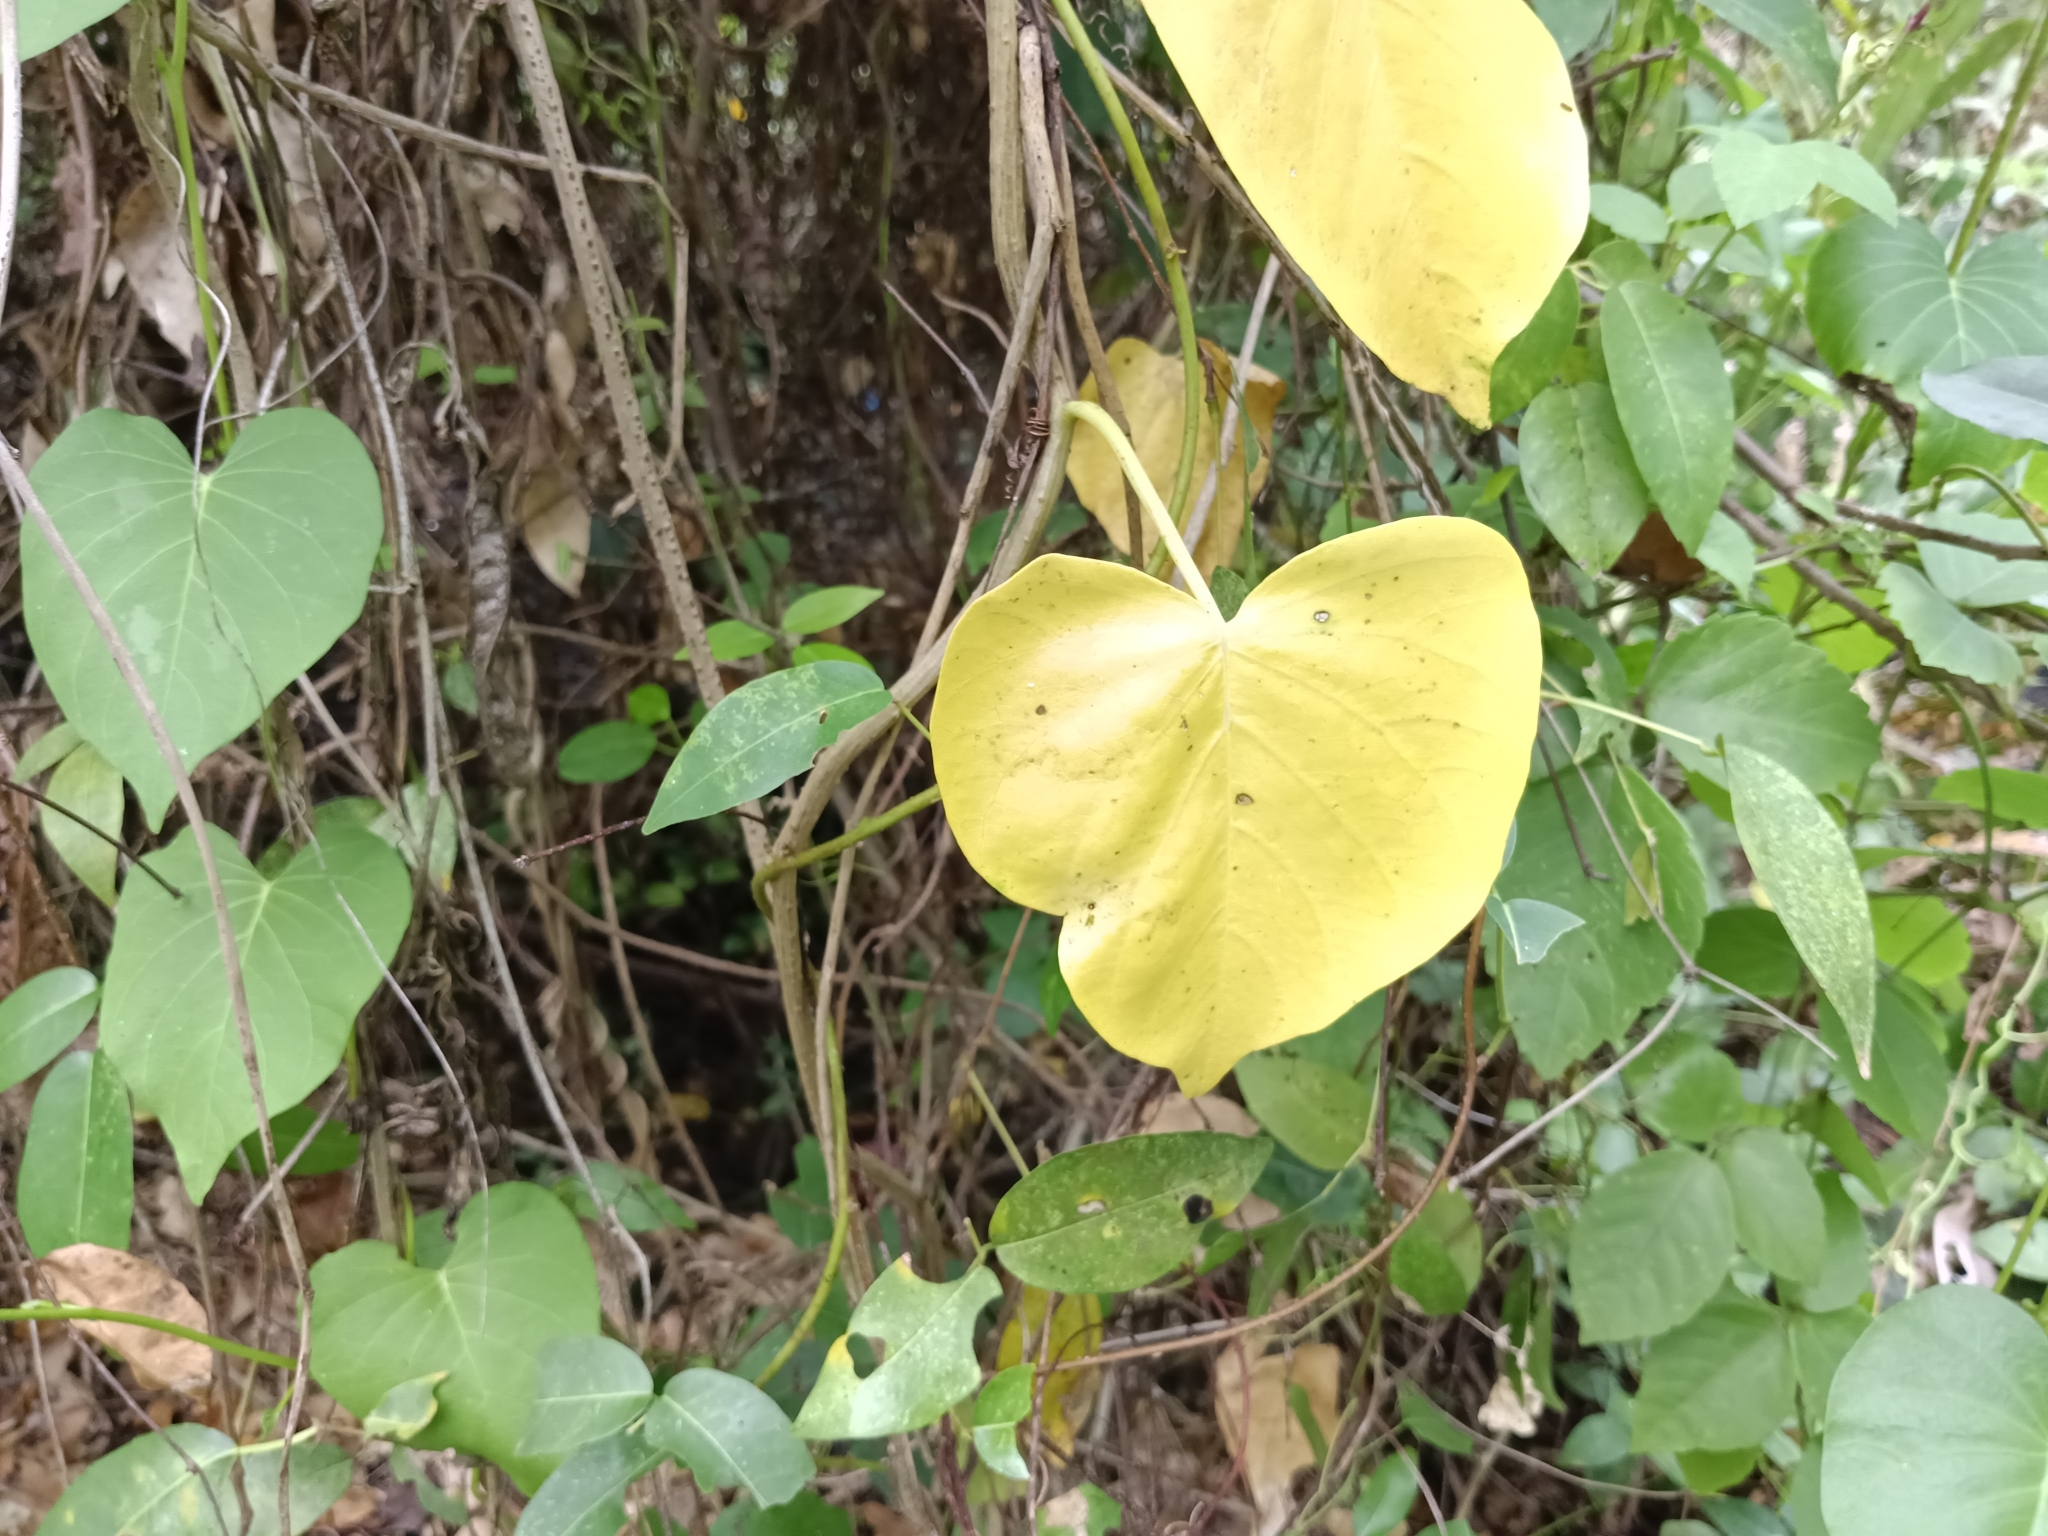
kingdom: Plantae
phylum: Tracheophyta
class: Magnoliopsida
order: Solanales
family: Convolvulaceae
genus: Ipomoea
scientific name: Ipomoea violacea
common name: Beach moonflower
